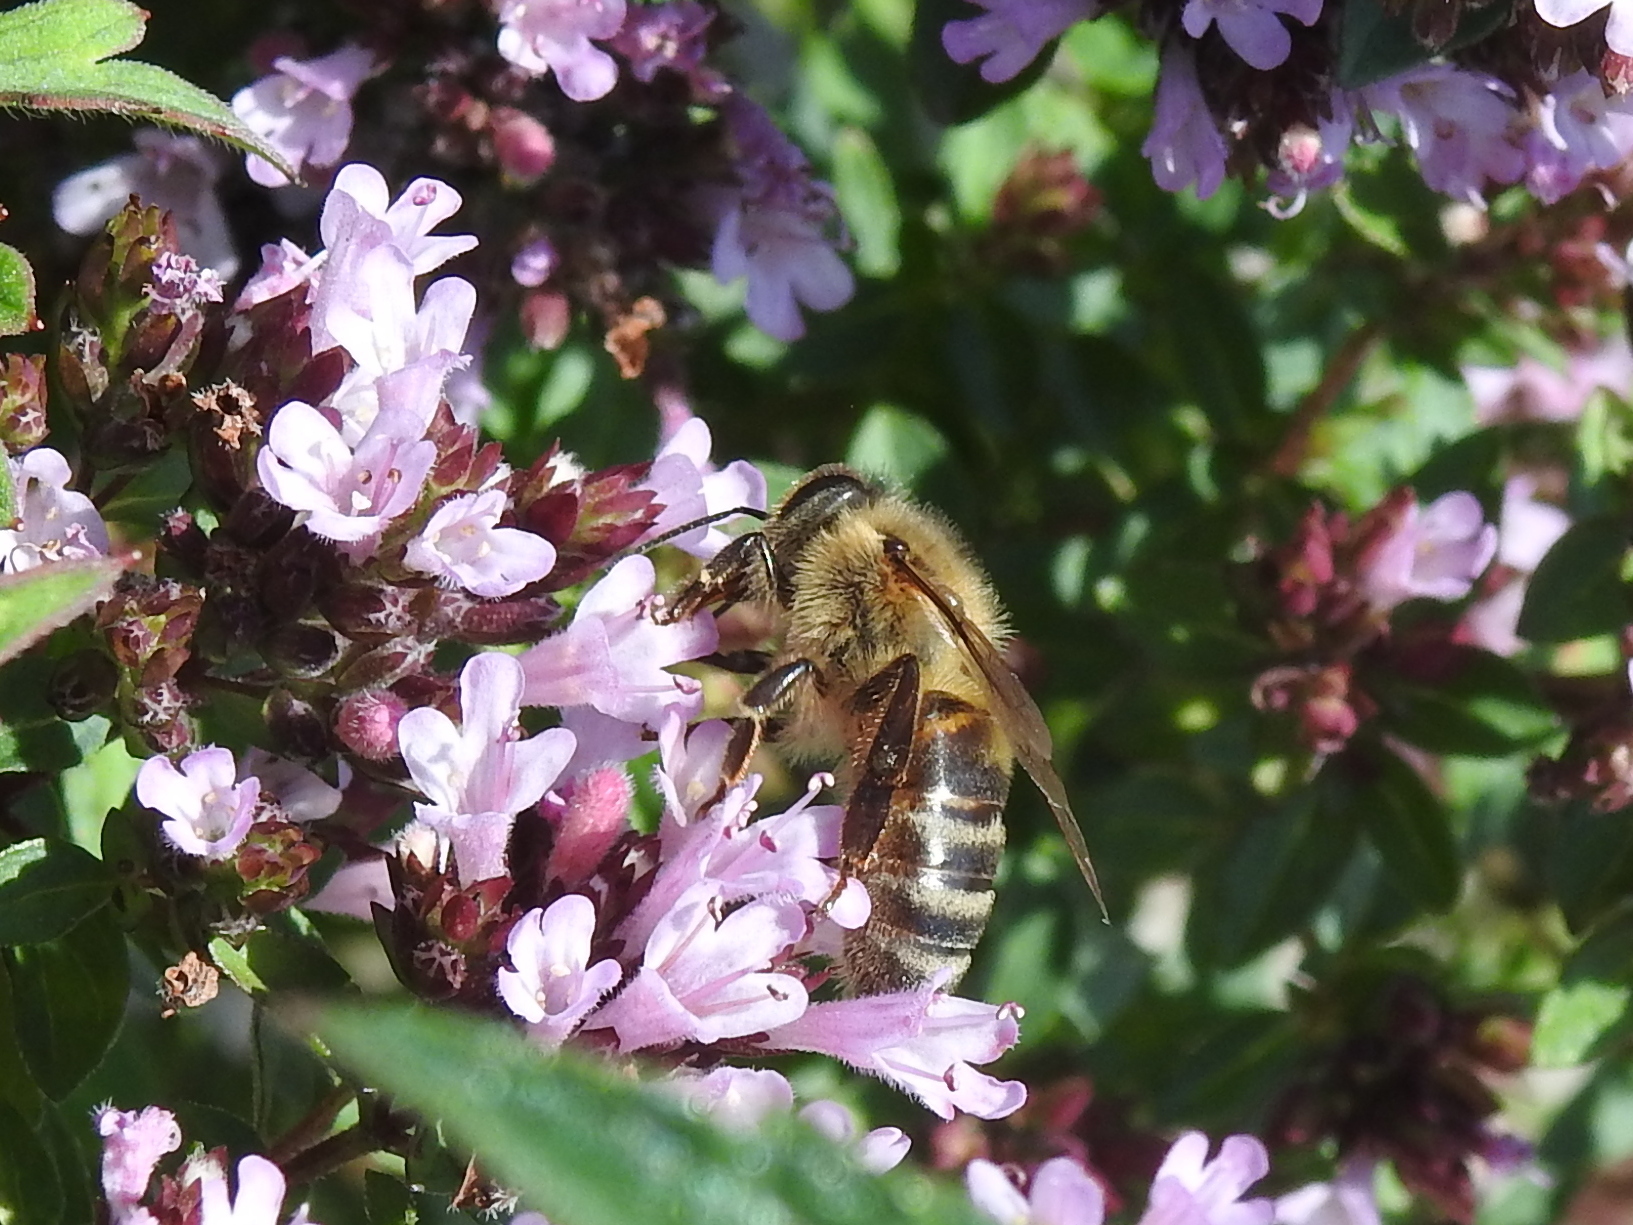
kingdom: Animalia
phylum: Arthropoda
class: Insecta
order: Hymenoptera
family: Apidae
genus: Apis
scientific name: Apis mellifera
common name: Honey bee
